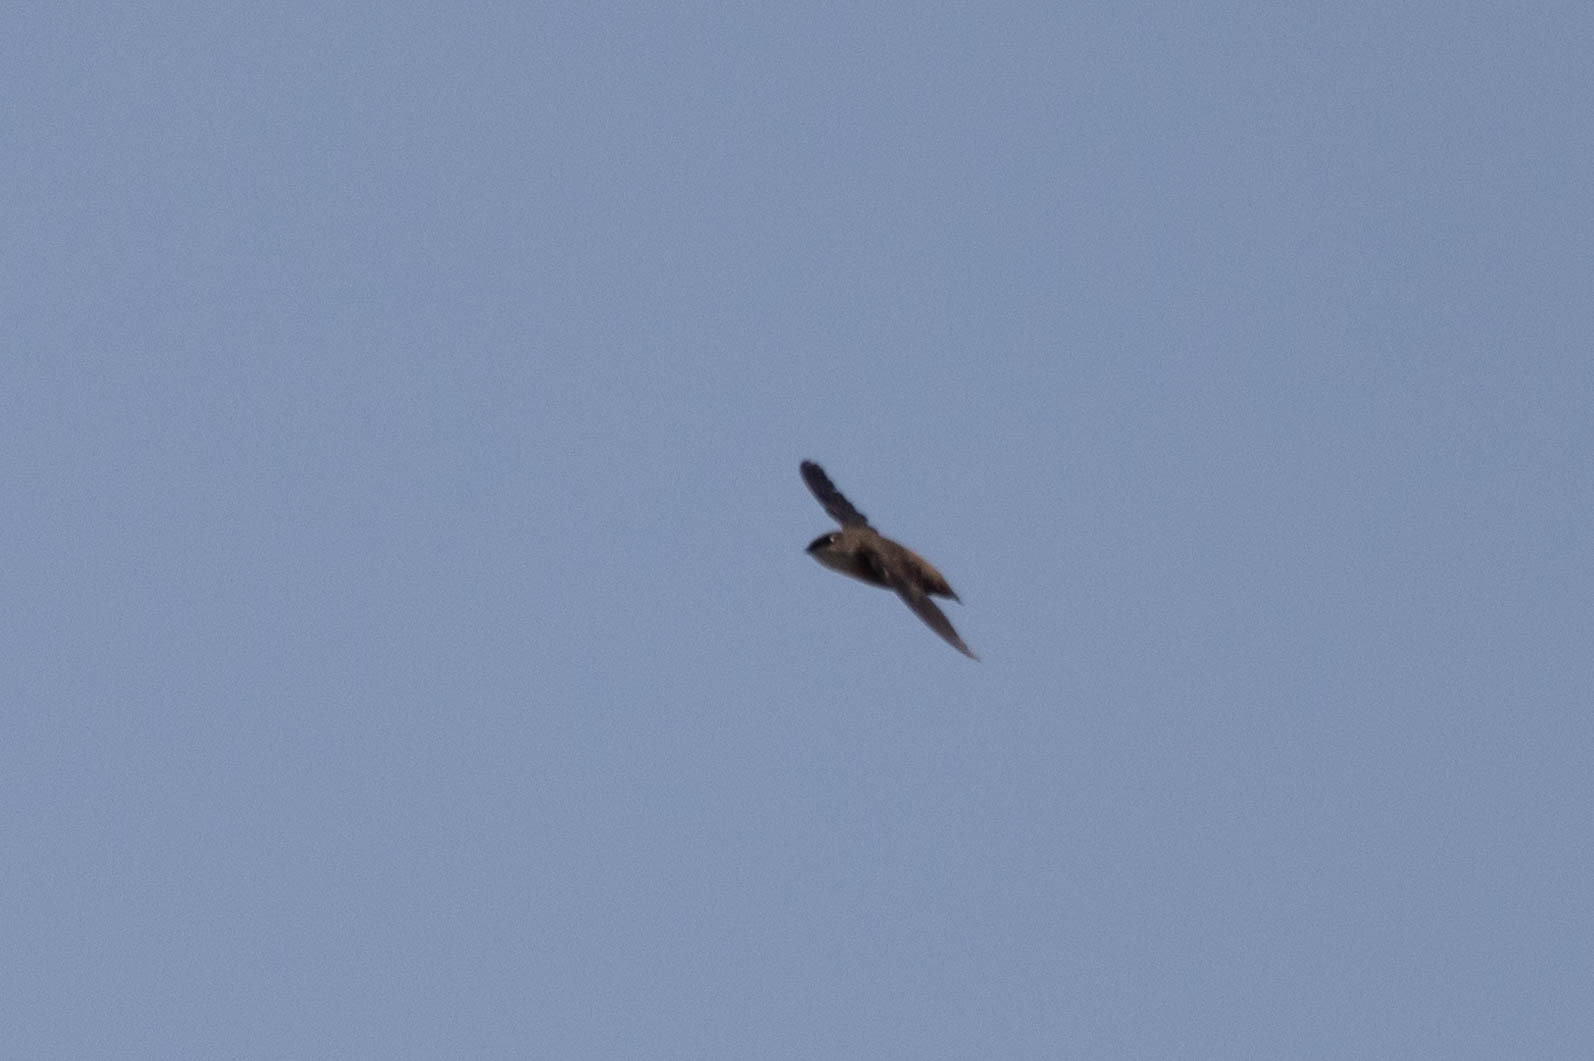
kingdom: Animalia
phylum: Chordata
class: Aves
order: Apodiformes
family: Apodidae
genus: Chaetura
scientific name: Chaetura vauxi
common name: Vaux's swift
